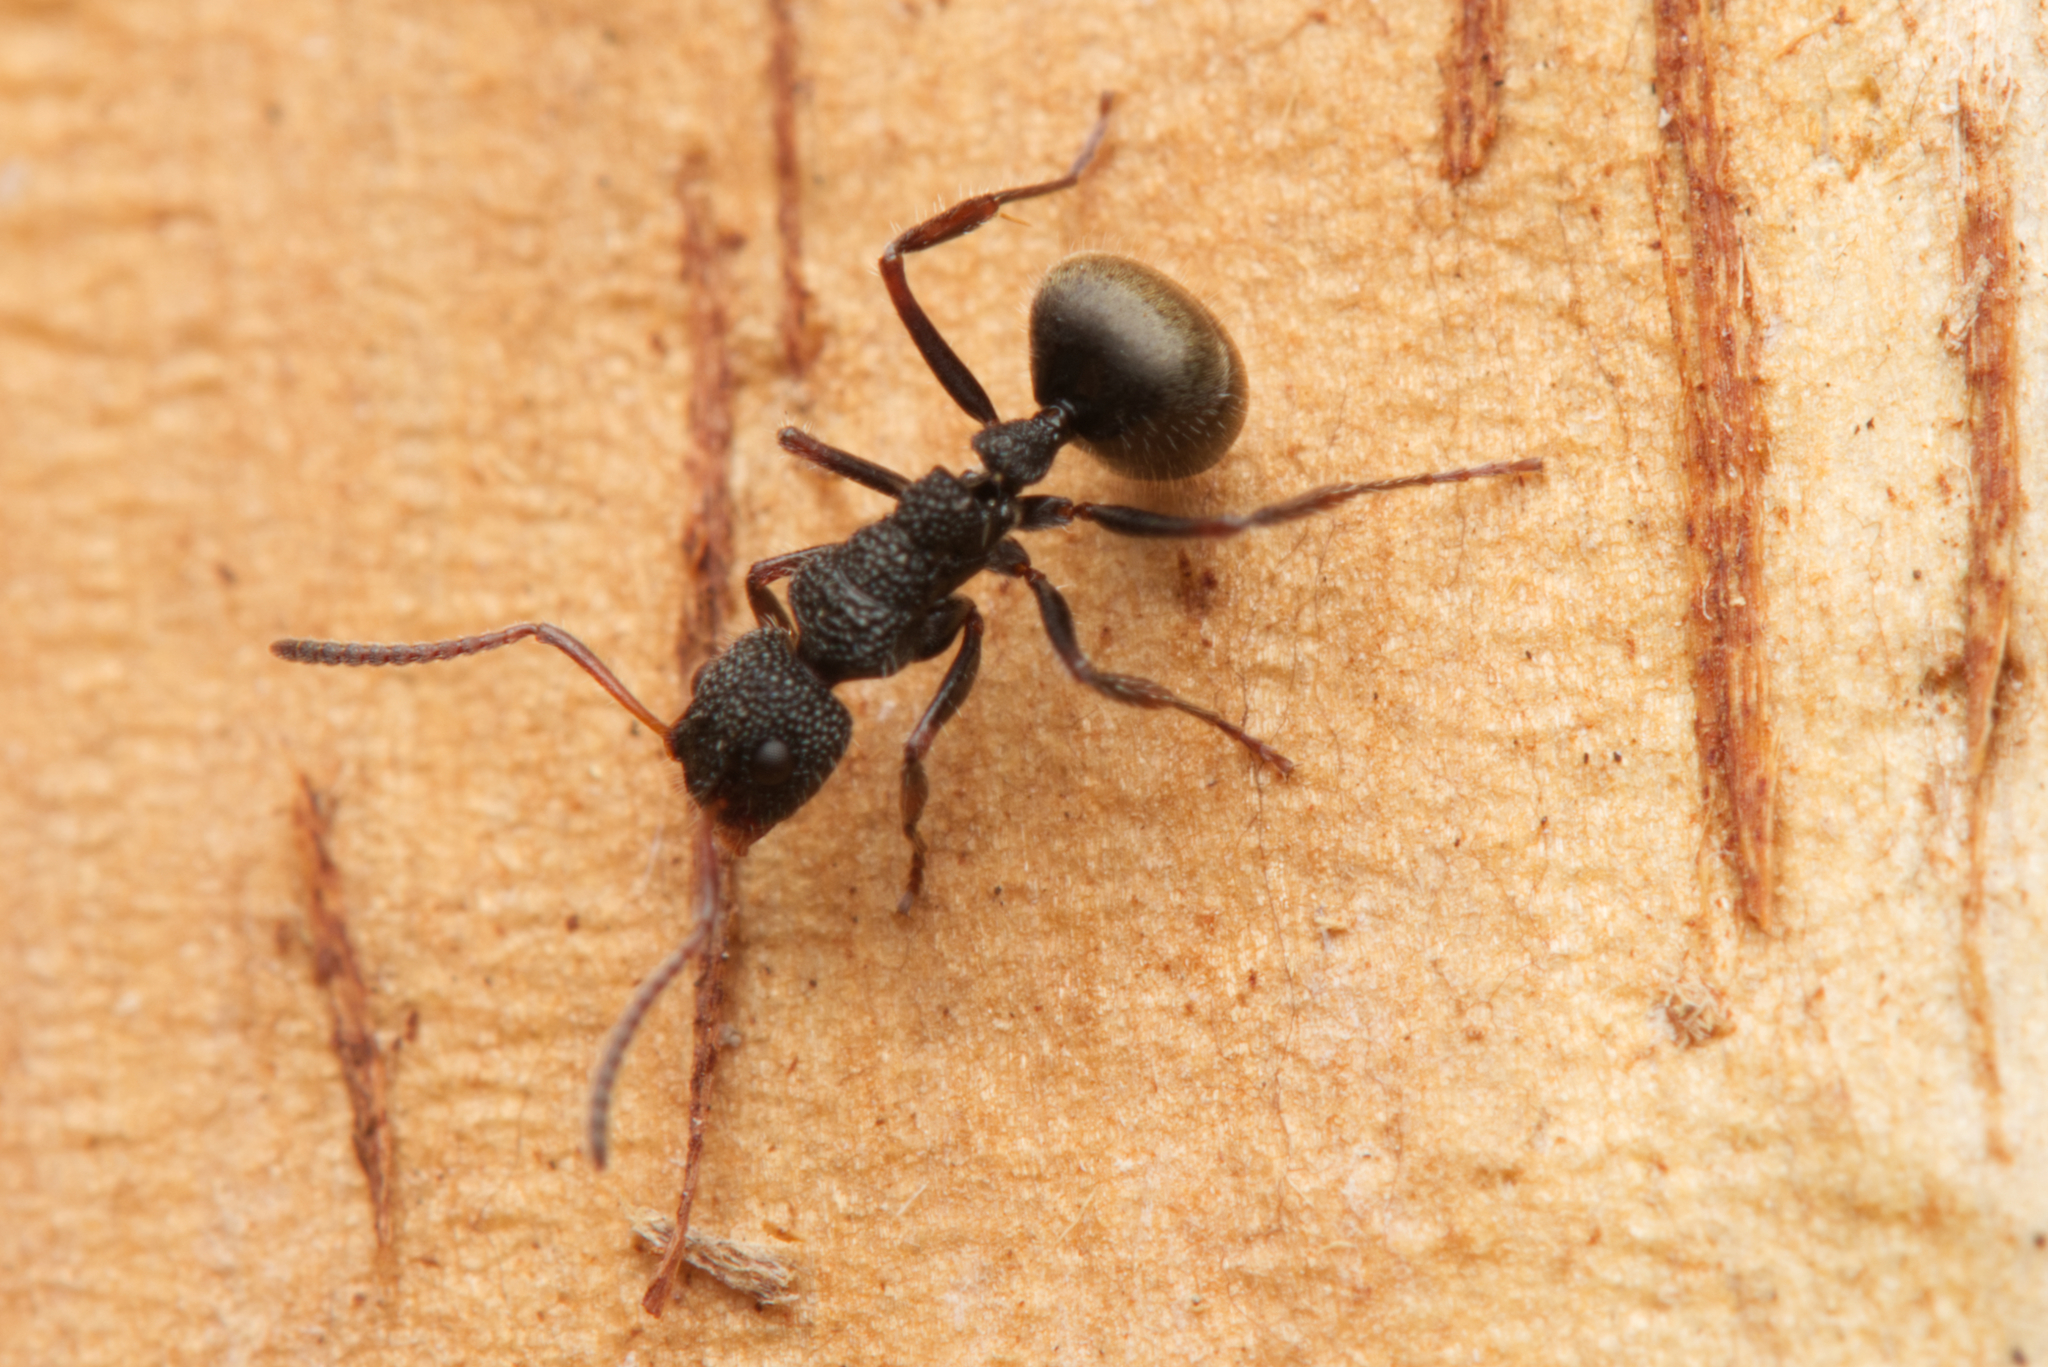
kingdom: Animalia
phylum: Arthropoda
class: Insecta
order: Hymenoptera
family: Formicidae
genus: Dolichoderus
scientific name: Dolichoderus scrobiculatus
